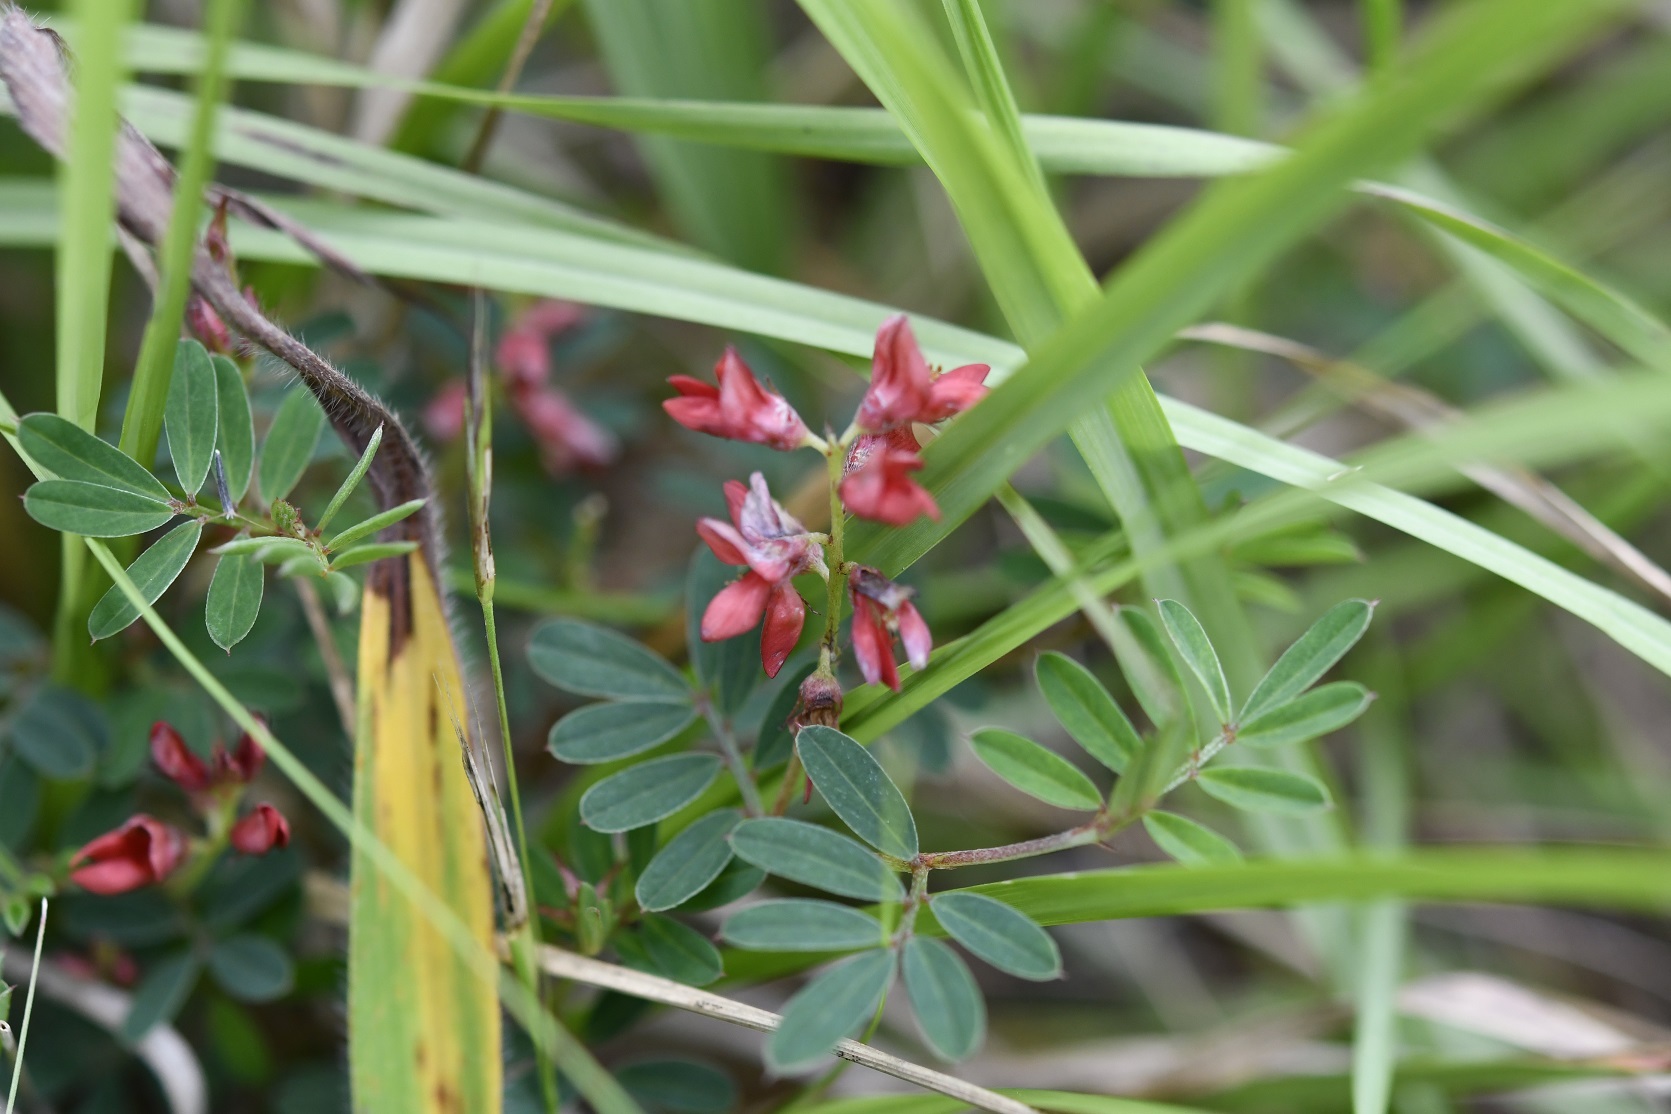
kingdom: Plantae
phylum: Tracheophyta
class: Magnoliopsida
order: Fabales
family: Fabaceae
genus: Indigofera
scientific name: Indigofera miniata
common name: Coast indigo
